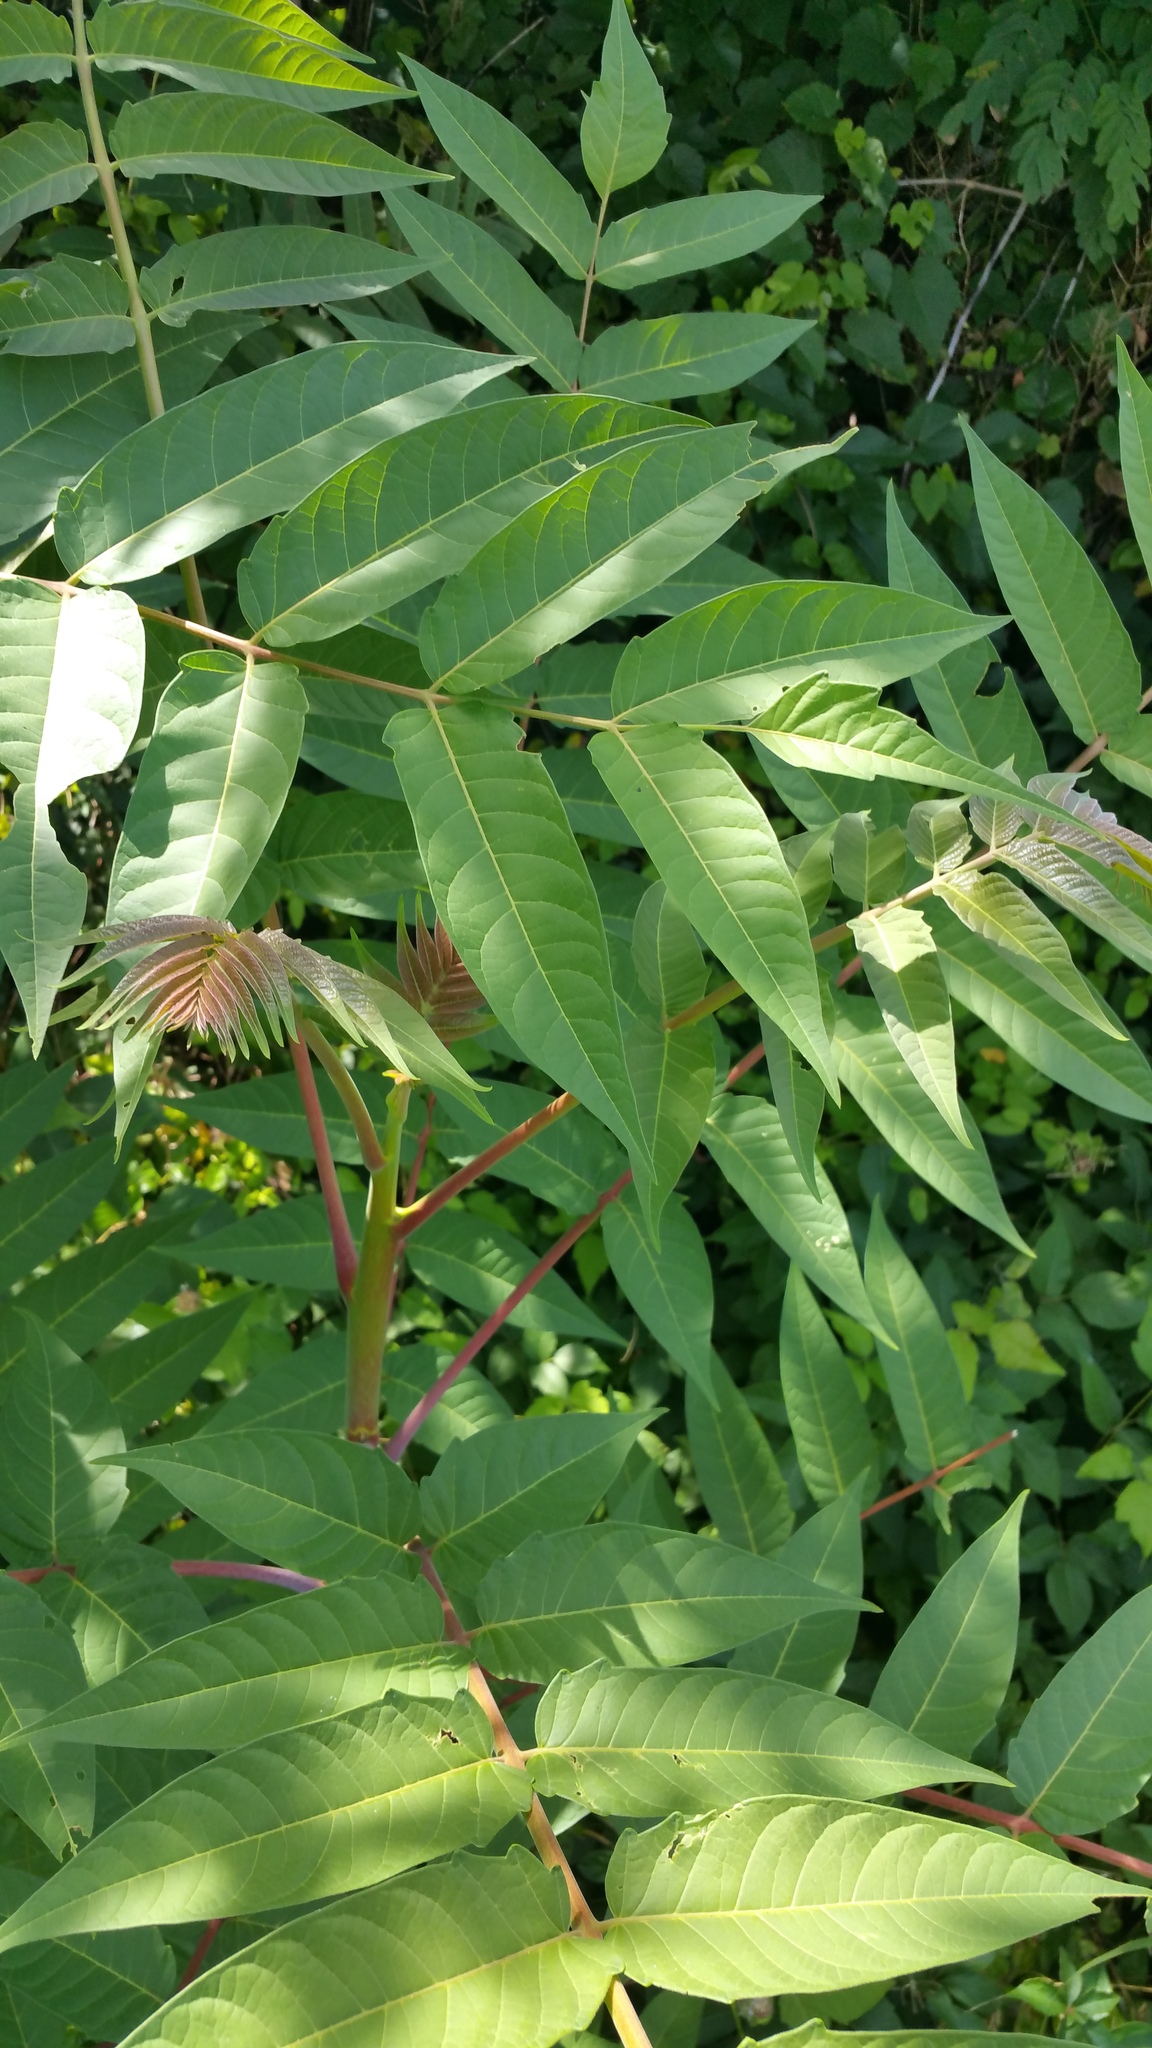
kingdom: Plantae
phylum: Tracheophyta
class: Magnoliopsida
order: Sapindales
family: Simaroubaceae
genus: Ailanthus
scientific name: Ailanthus altissima
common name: Tree-of-heaven
